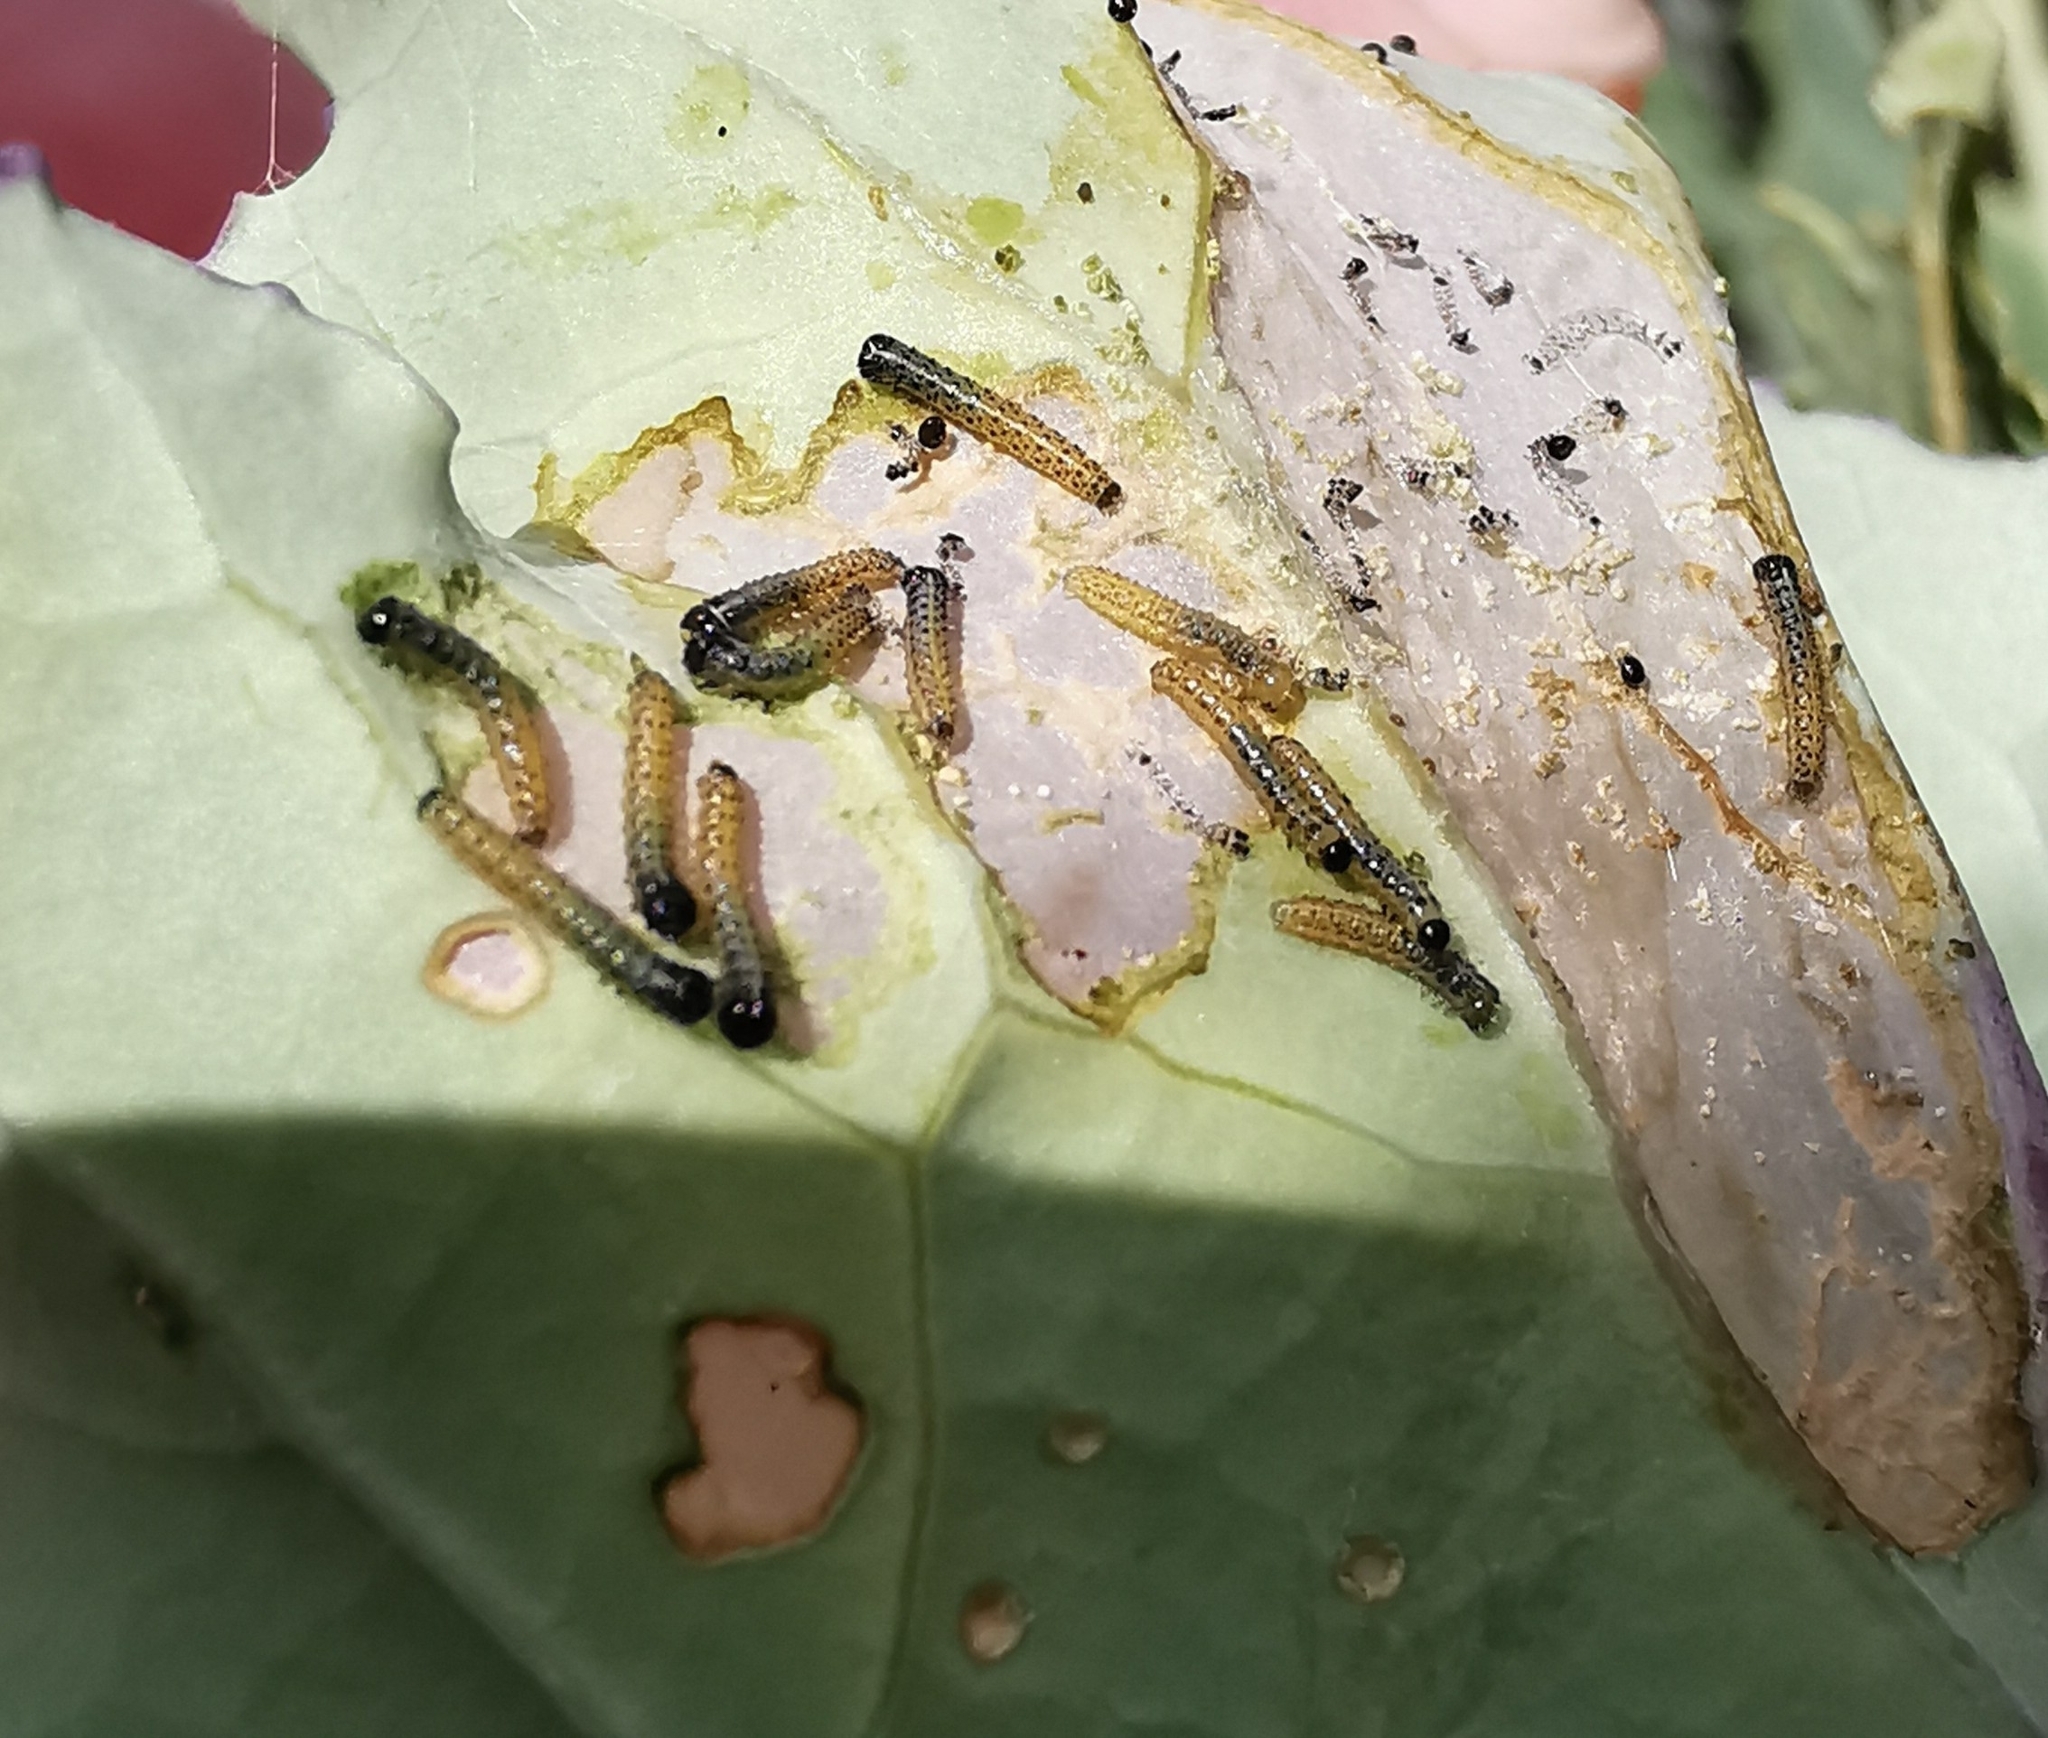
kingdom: Animalia
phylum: Arthropoda
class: Insecta
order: Lepidoptera
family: Pieridae
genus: Pieris
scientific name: Pieris brassicae
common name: Large white
